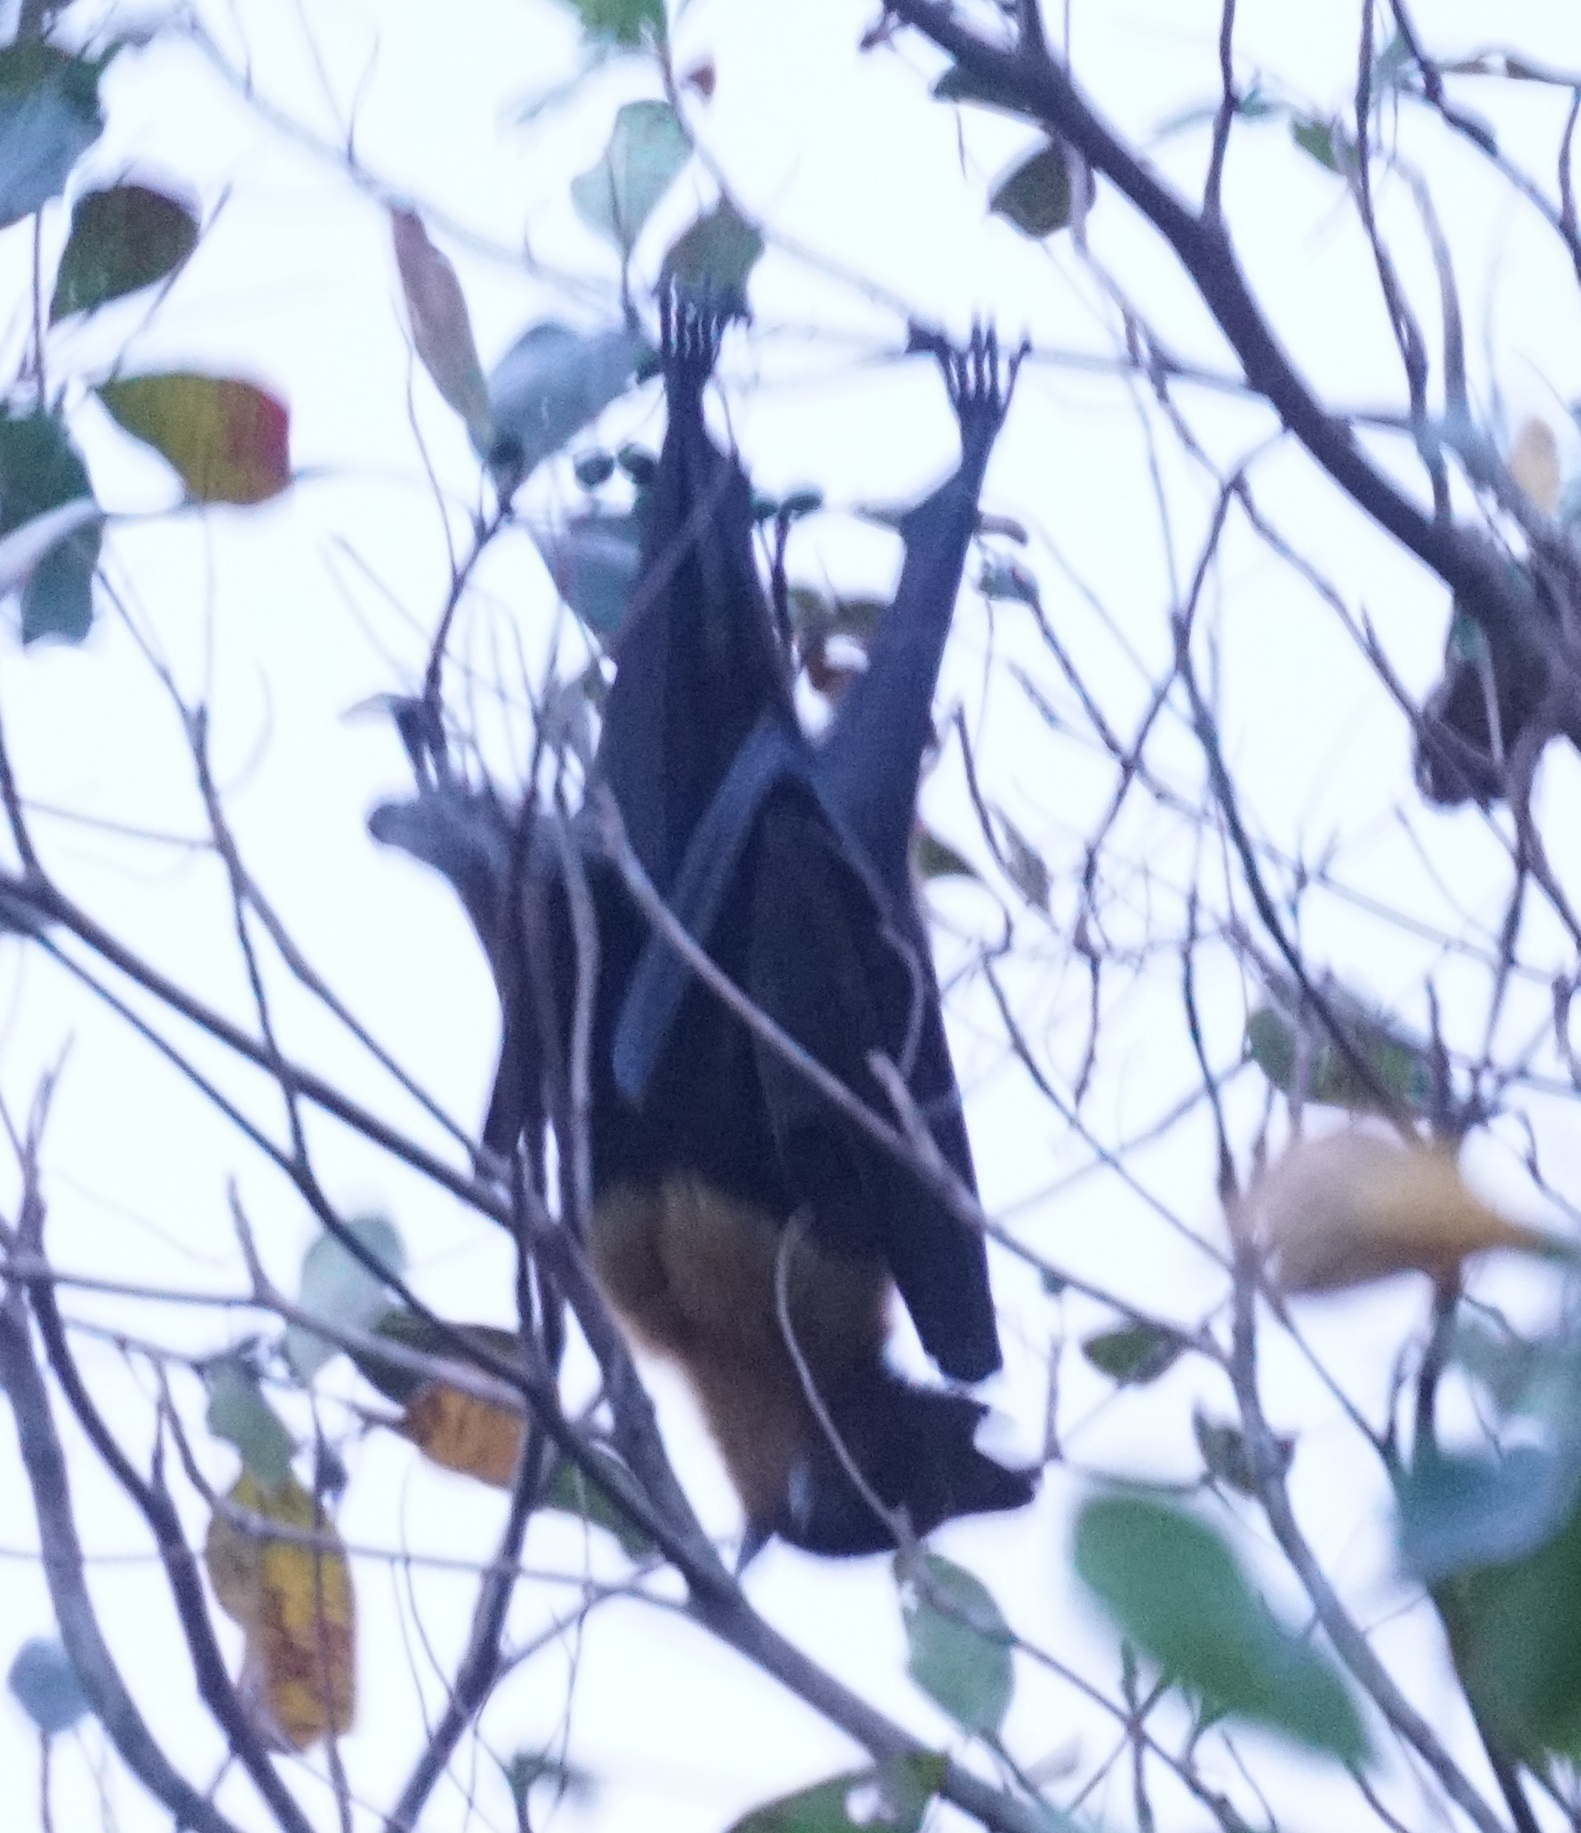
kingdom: Animalia
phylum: Chordata
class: Mammalia
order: Chiroptera
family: Pteropodidae
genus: Pteropus
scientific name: Pteropus conspicillatus
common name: Spectacled flying fox
